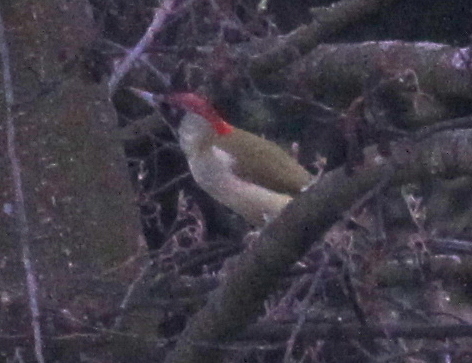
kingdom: Animalia
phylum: Chordata
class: Aves
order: Piciformes
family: Picidae
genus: Picus
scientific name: Picus viridis
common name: European green woodpecker
